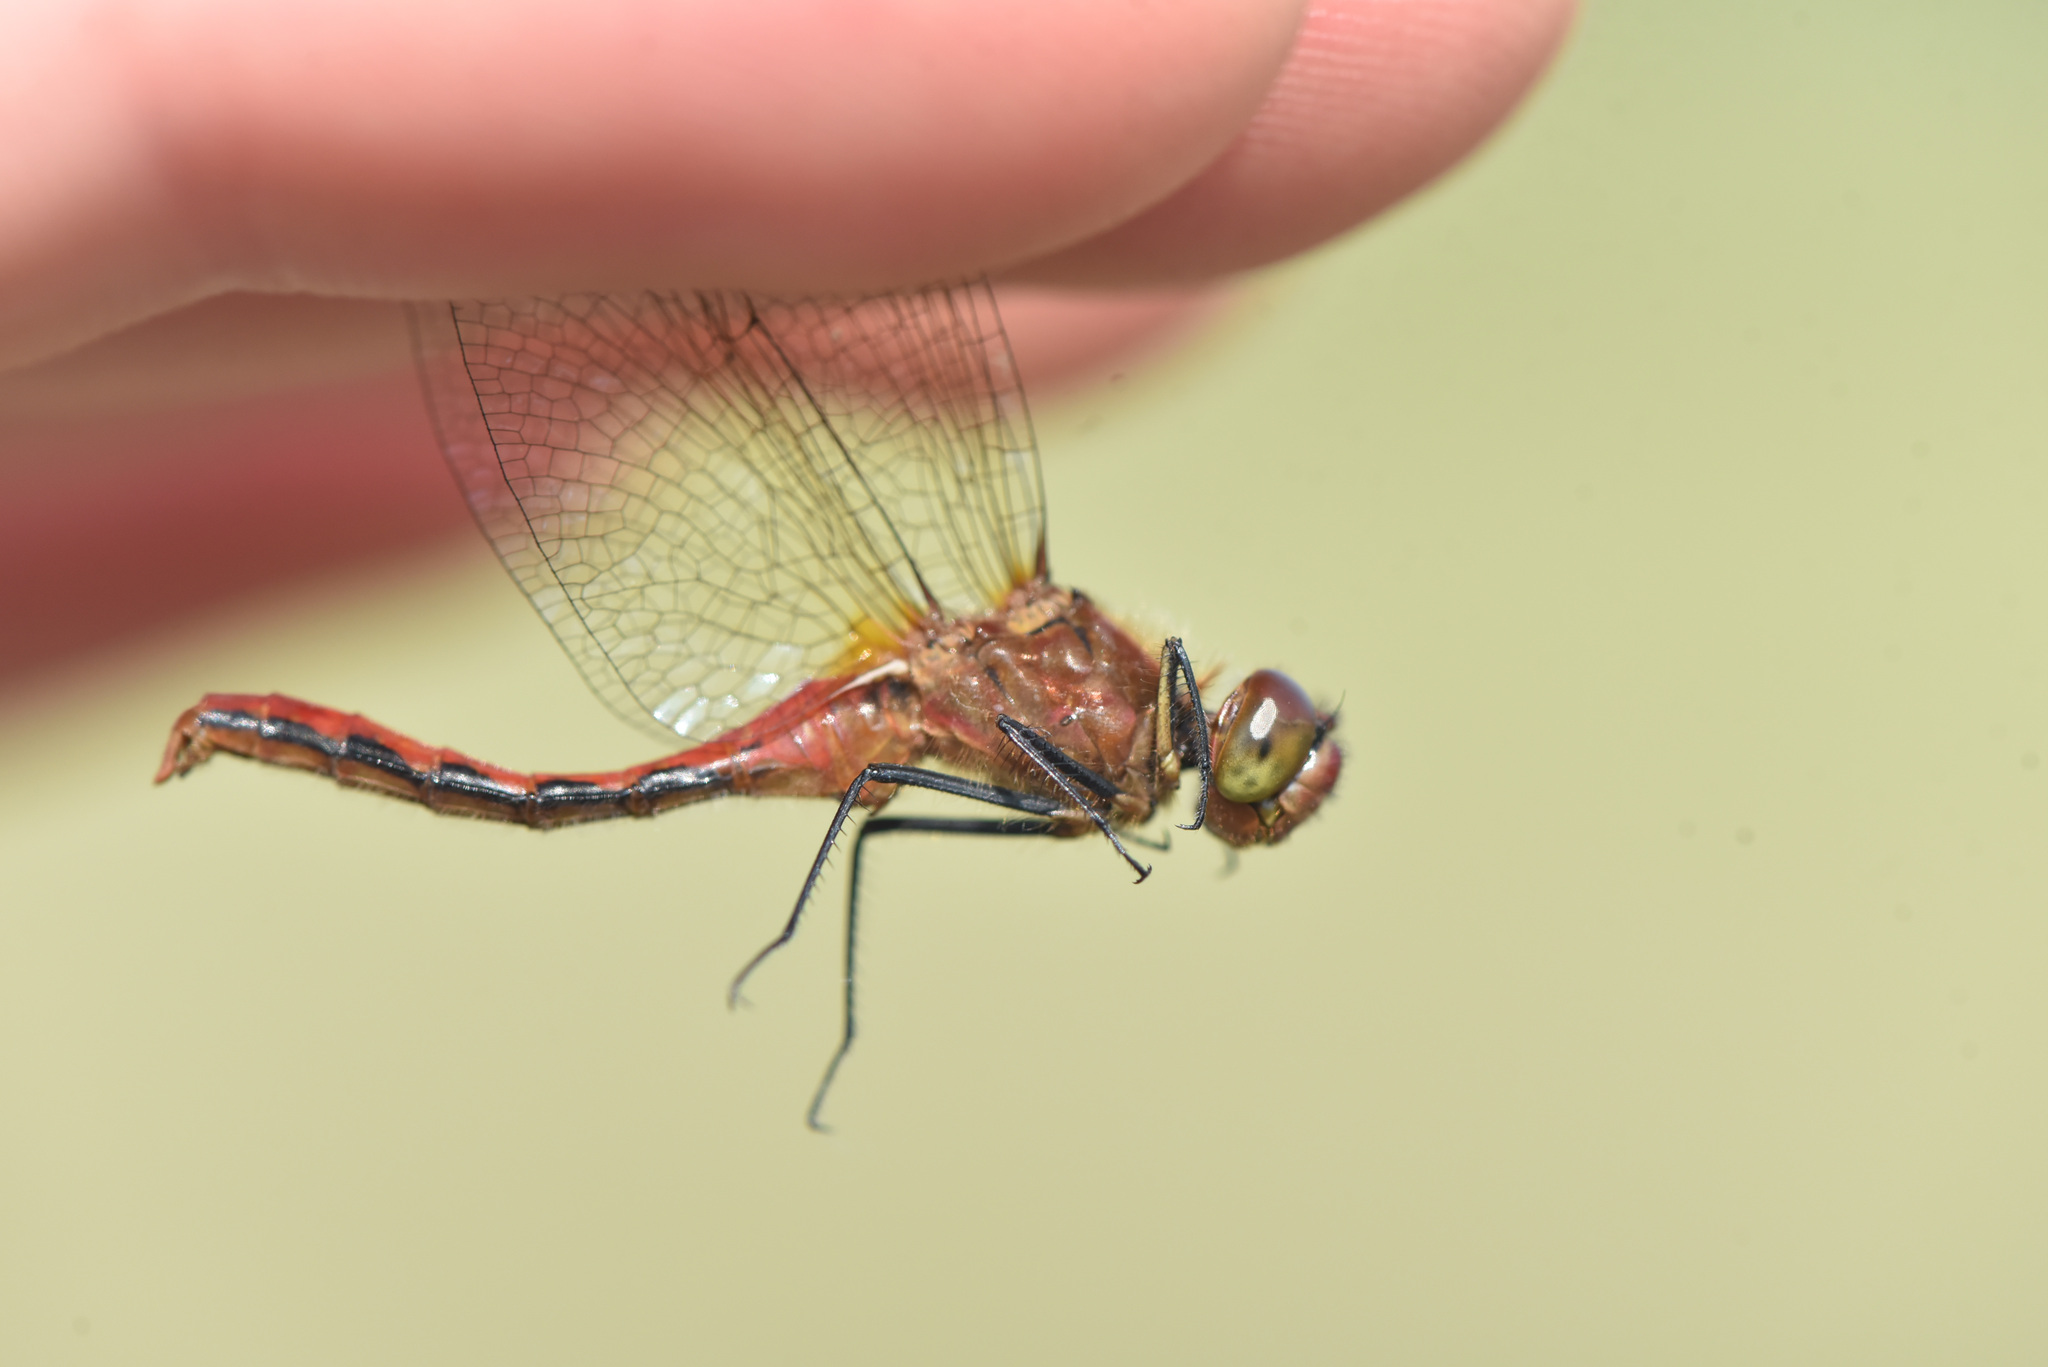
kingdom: Animalia
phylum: Arthropoda
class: Insecta
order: Odonata
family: Libellulidae
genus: Sympetrum
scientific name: Sympetrum internum
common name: Cherry-faced meadowhawk
